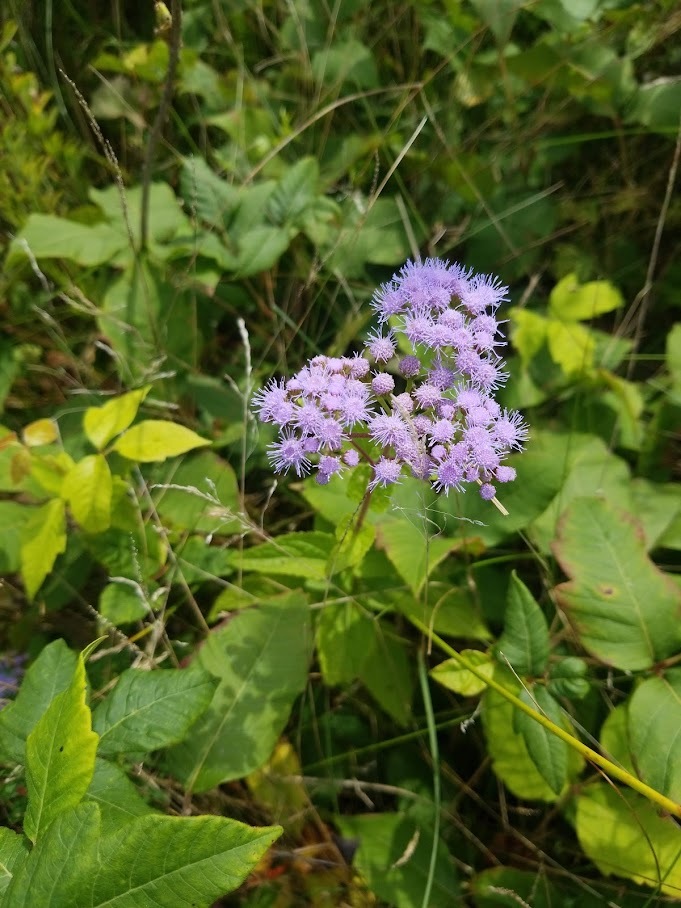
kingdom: Plantae
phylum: Tracheophyta
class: Magnoliopsida
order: Asterales
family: Asteraceae
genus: Conoclinium
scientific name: Conoclinium coelestinum
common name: Blue mistflower
